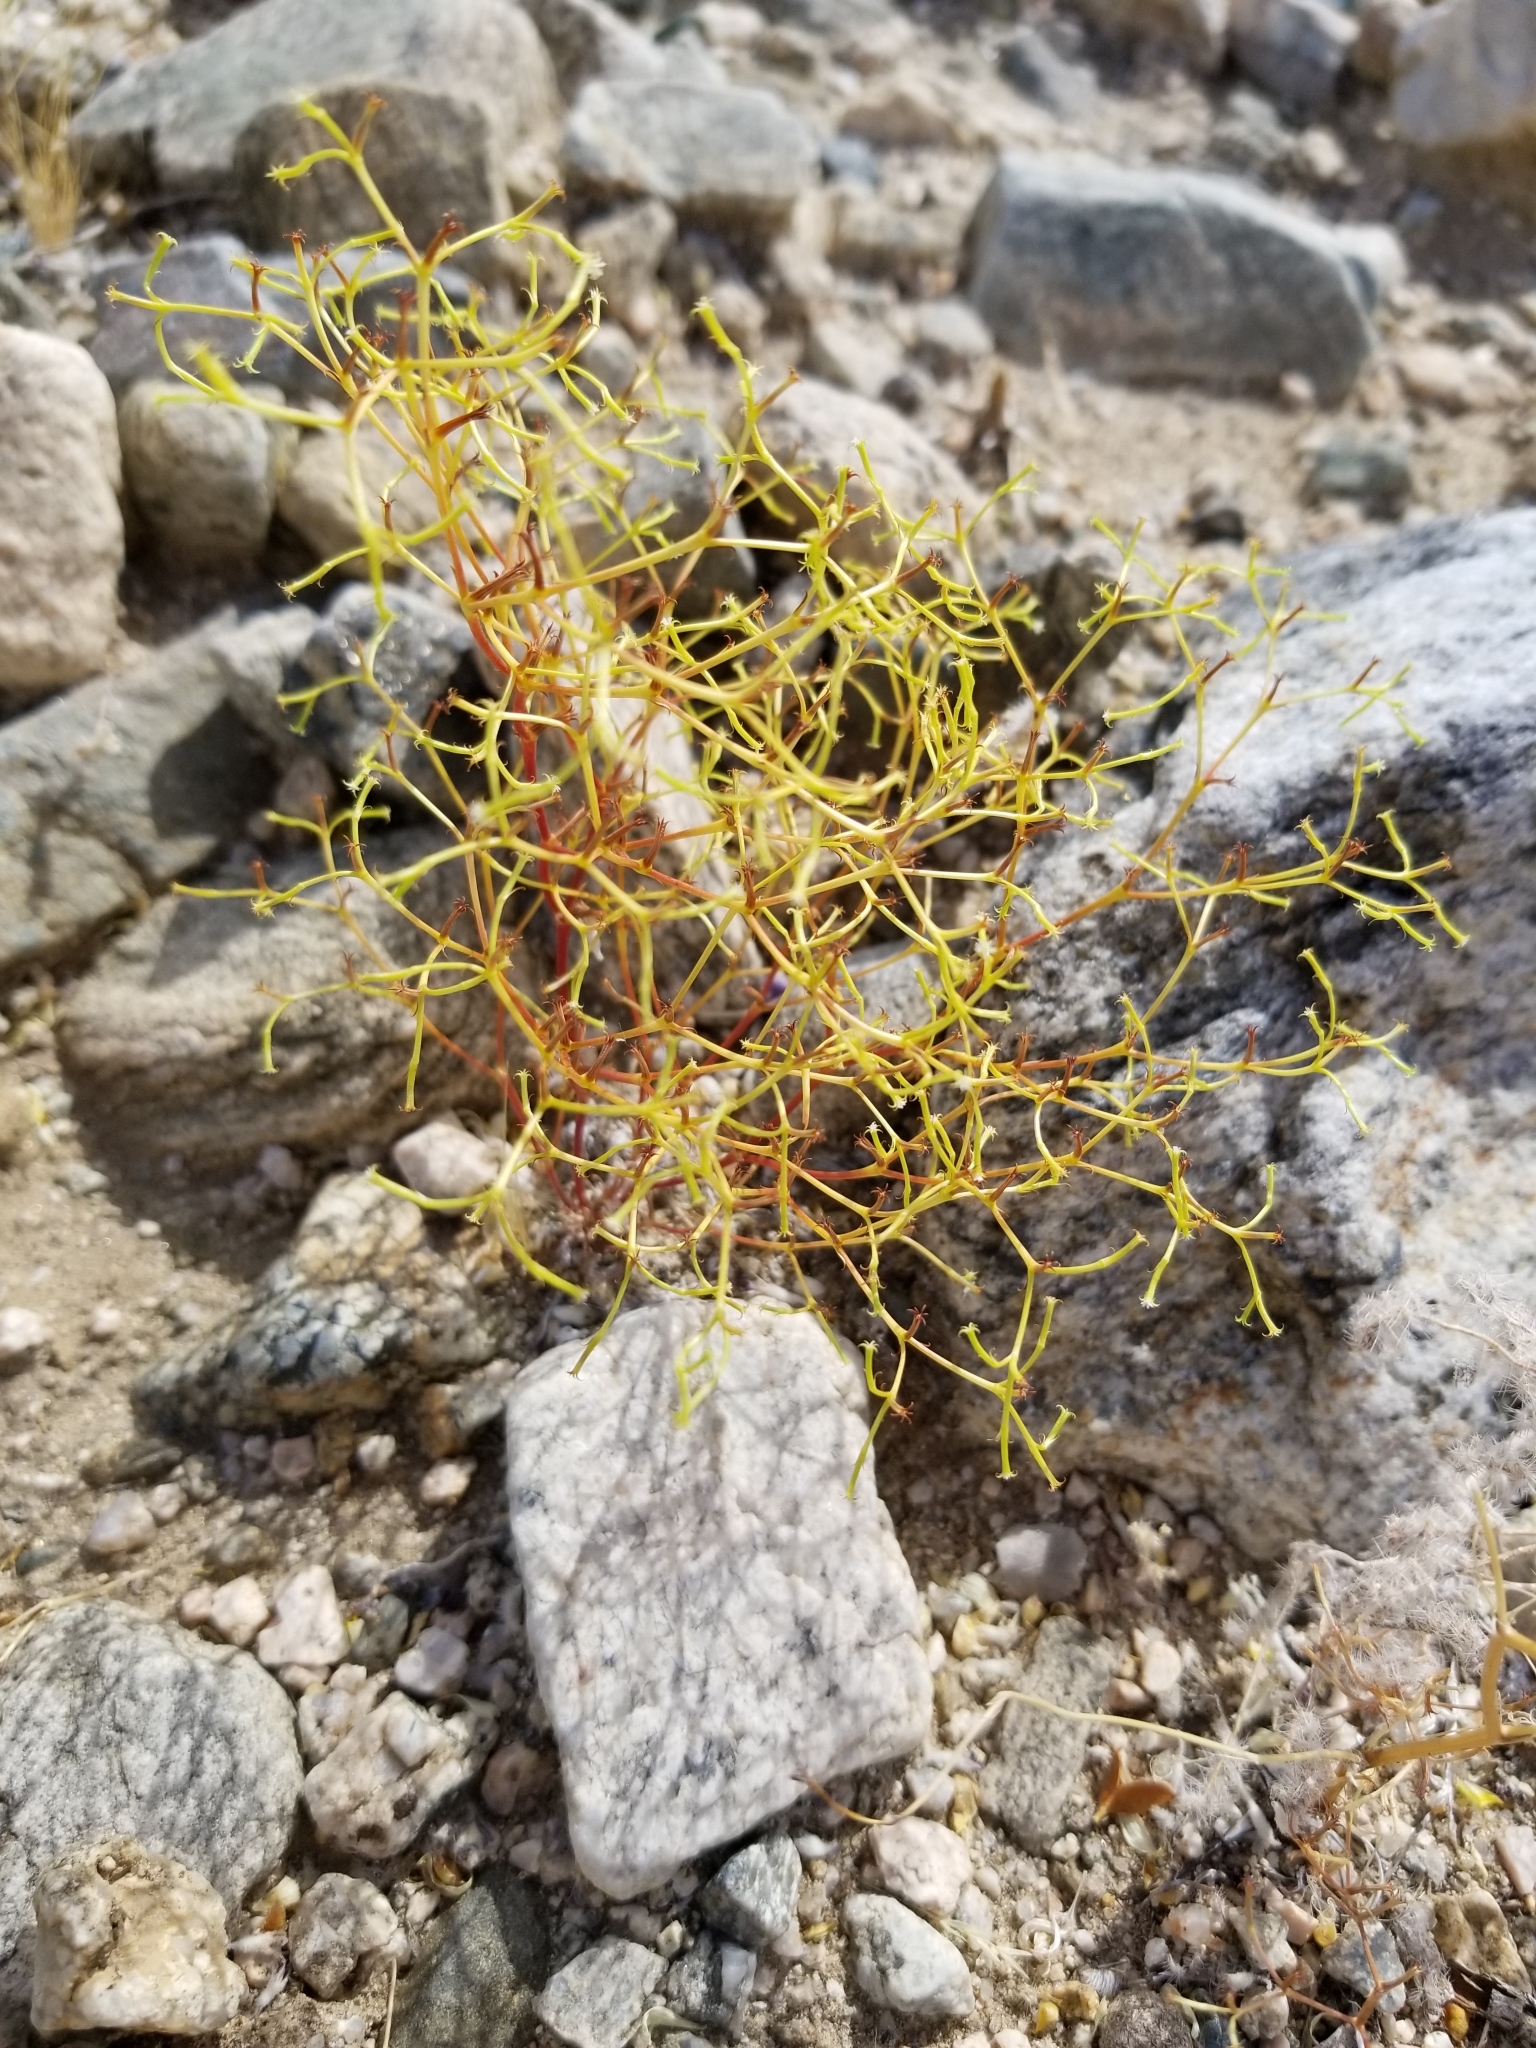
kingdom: Plantae
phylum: Tracheophyta
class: Magnoliopsida
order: Caryophyllales
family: Polygonaceae
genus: Chorizanthe
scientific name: Chorizanthe brevicornu
